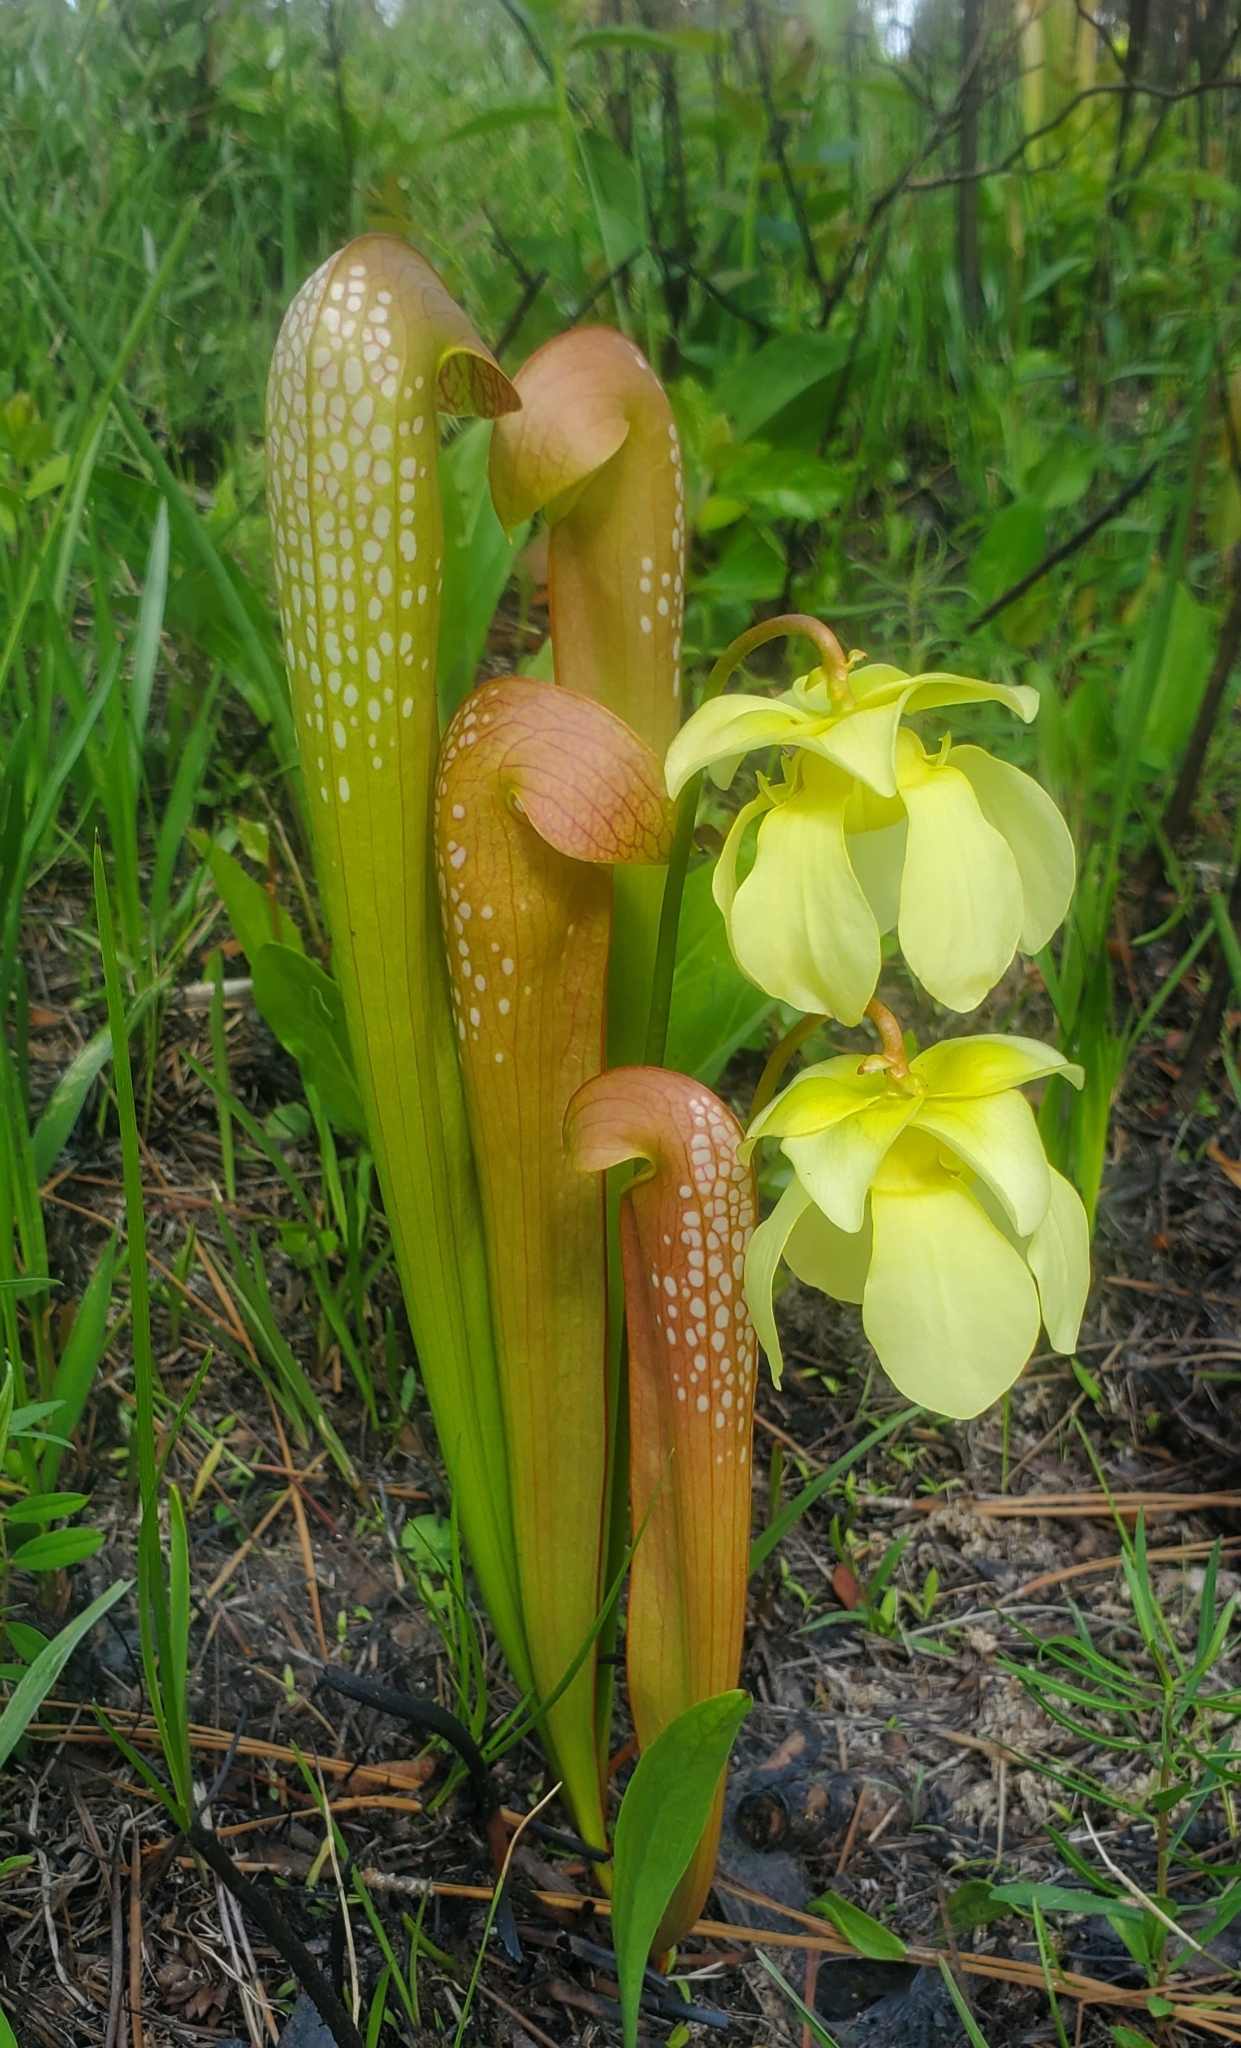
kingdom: Plantae
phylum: Tracheophyta
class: Magnoliopsida
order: Ericales
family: Sarraceniaceae
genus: Sarracenia
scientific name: Sarracenia minor
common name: Rainhat-trumpet
